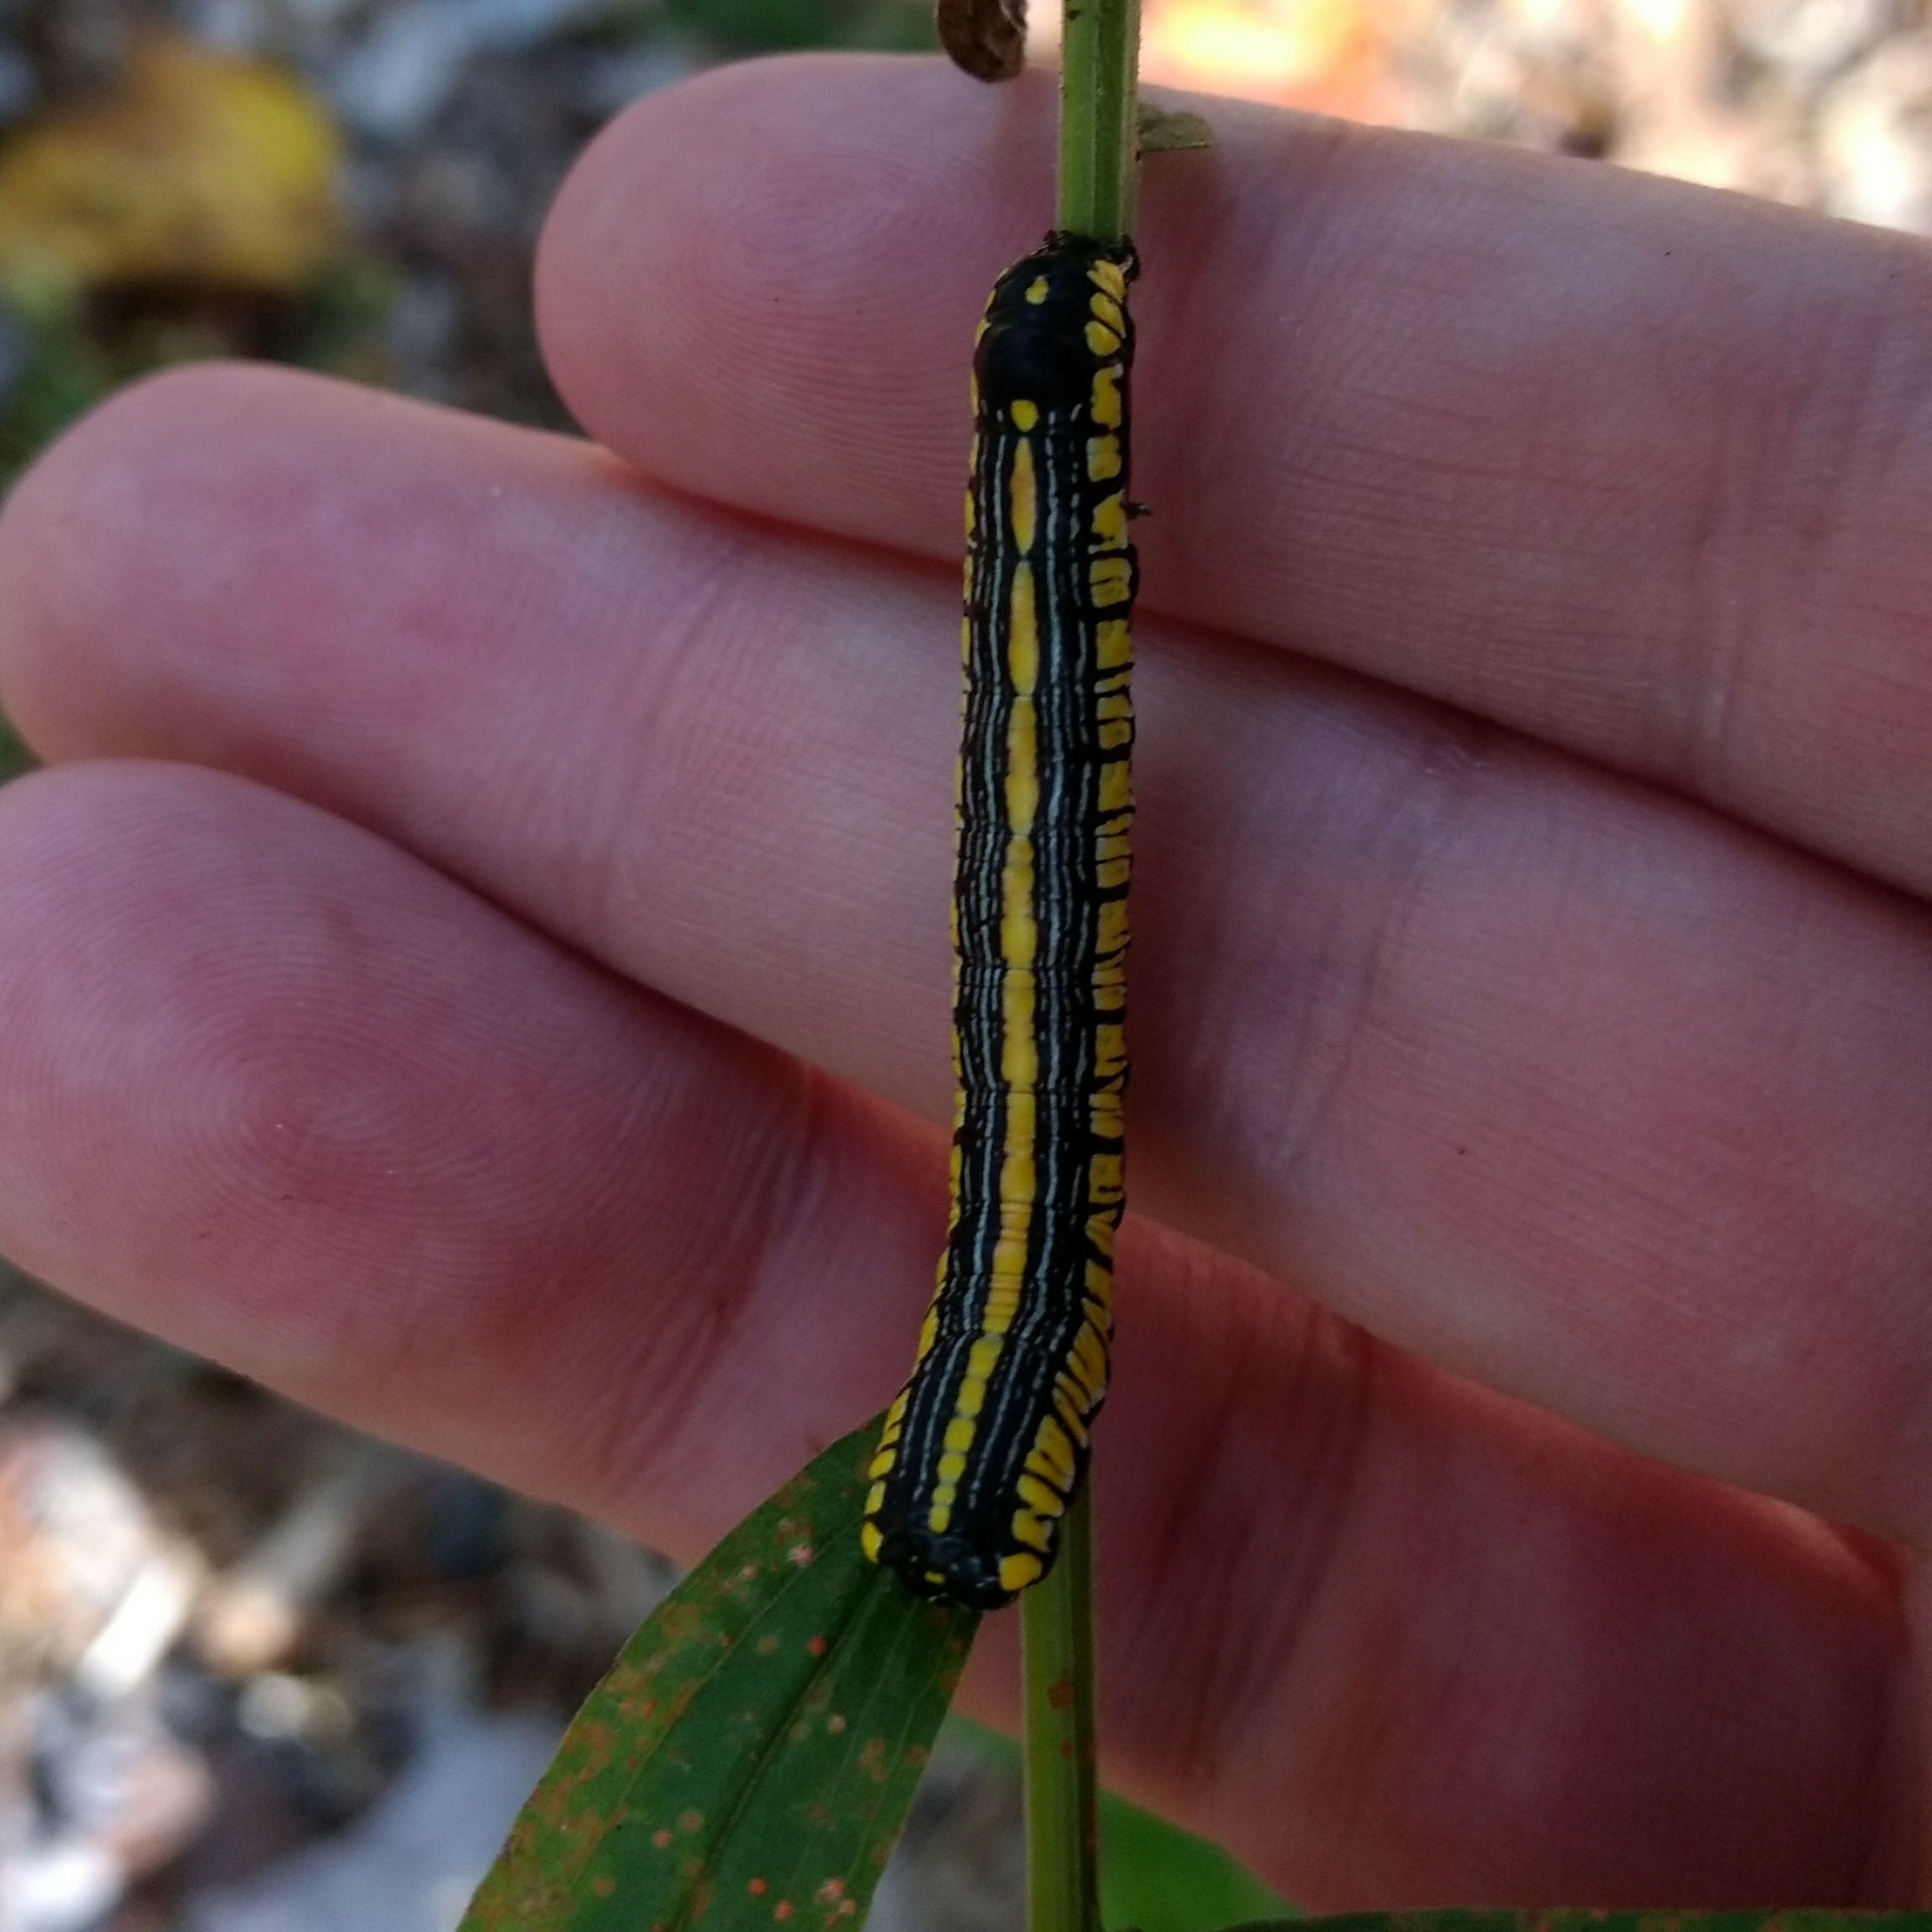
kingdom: Animalia
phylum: Arthropoda
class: Insecta
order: Lepidoptera
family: Noctuidae
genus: Cucullia
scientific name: Cucullia convexipennis
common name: Brown-hooded owlet
